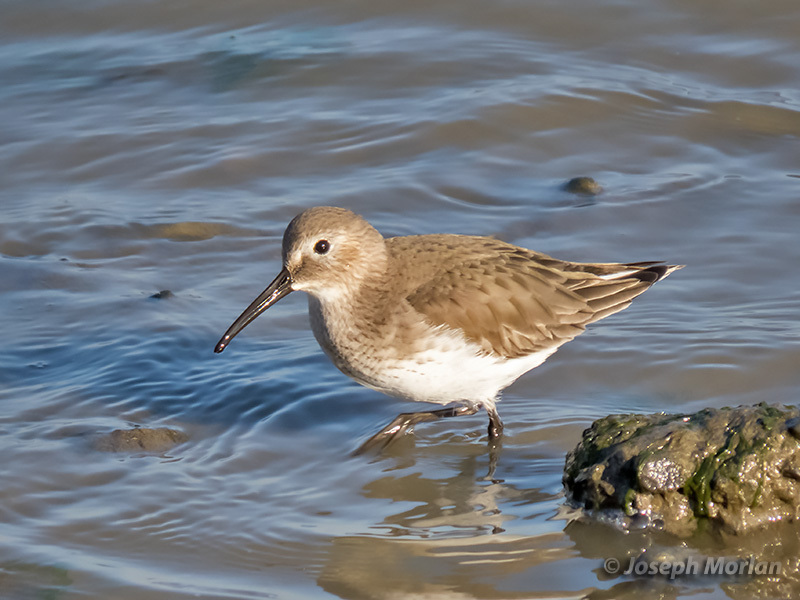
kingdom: Animalia
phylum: Chordata
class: Aves
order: Charadriiformes
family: Scolopacidae
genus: Calidris
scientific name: Calidris alpina
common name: Dunlin
